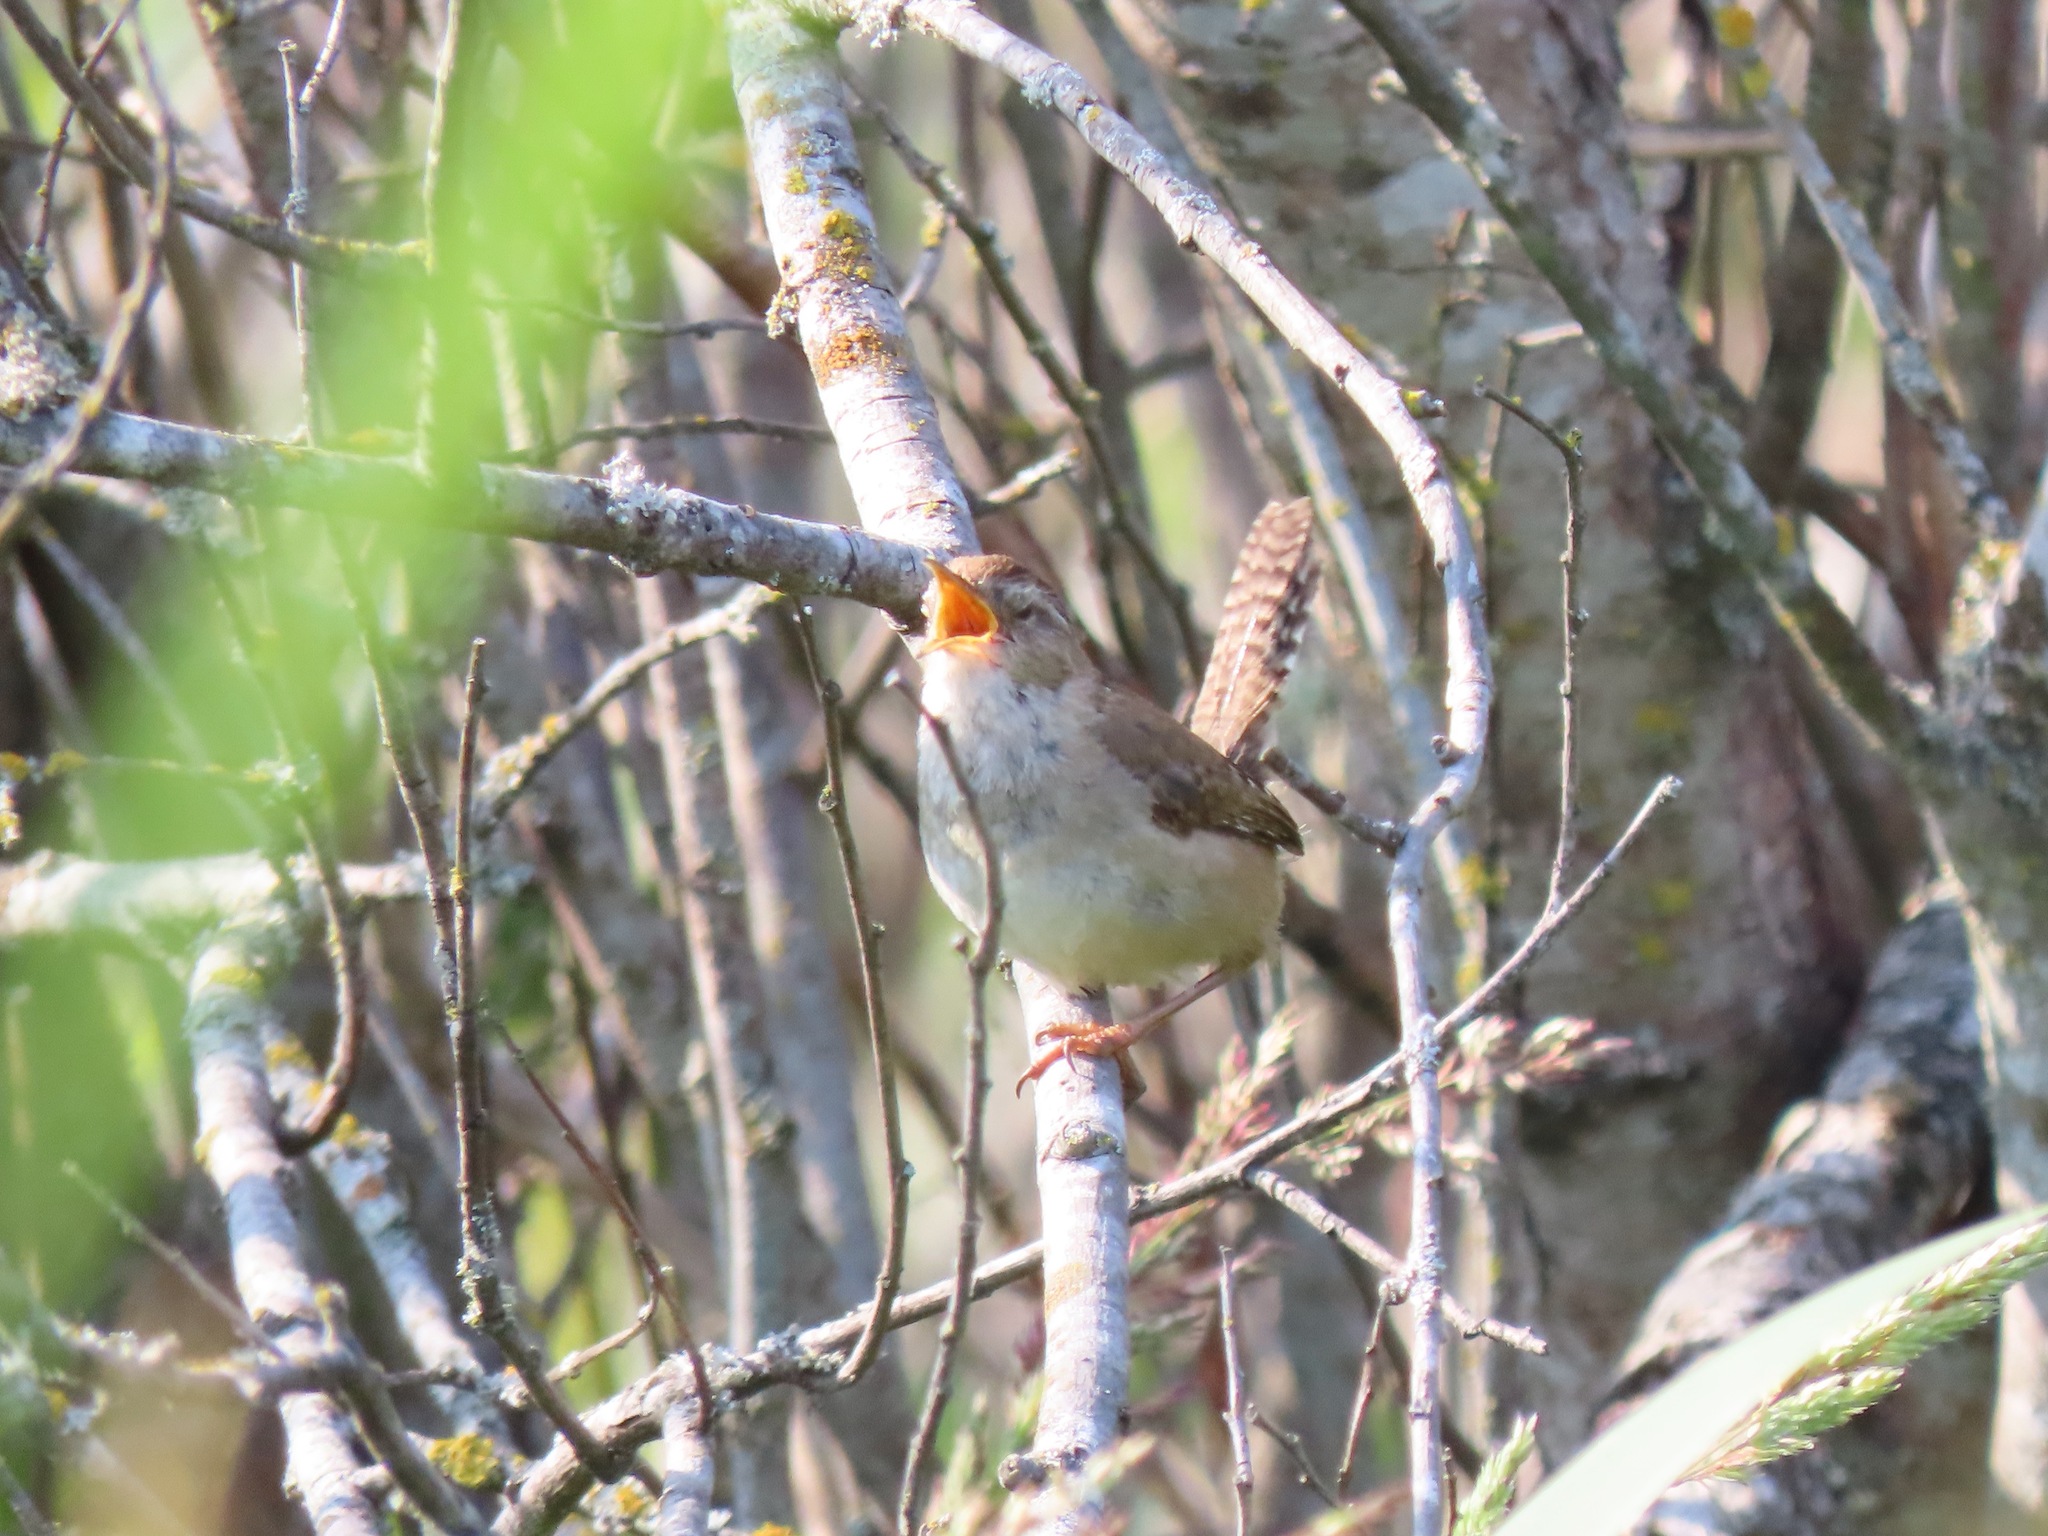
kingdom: Animalia
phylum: Chordata
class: Aves
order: Passeriformes
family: Troglodytidae
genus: Cistothorus
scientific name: Cistothorus palustris
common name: Marsh wren
